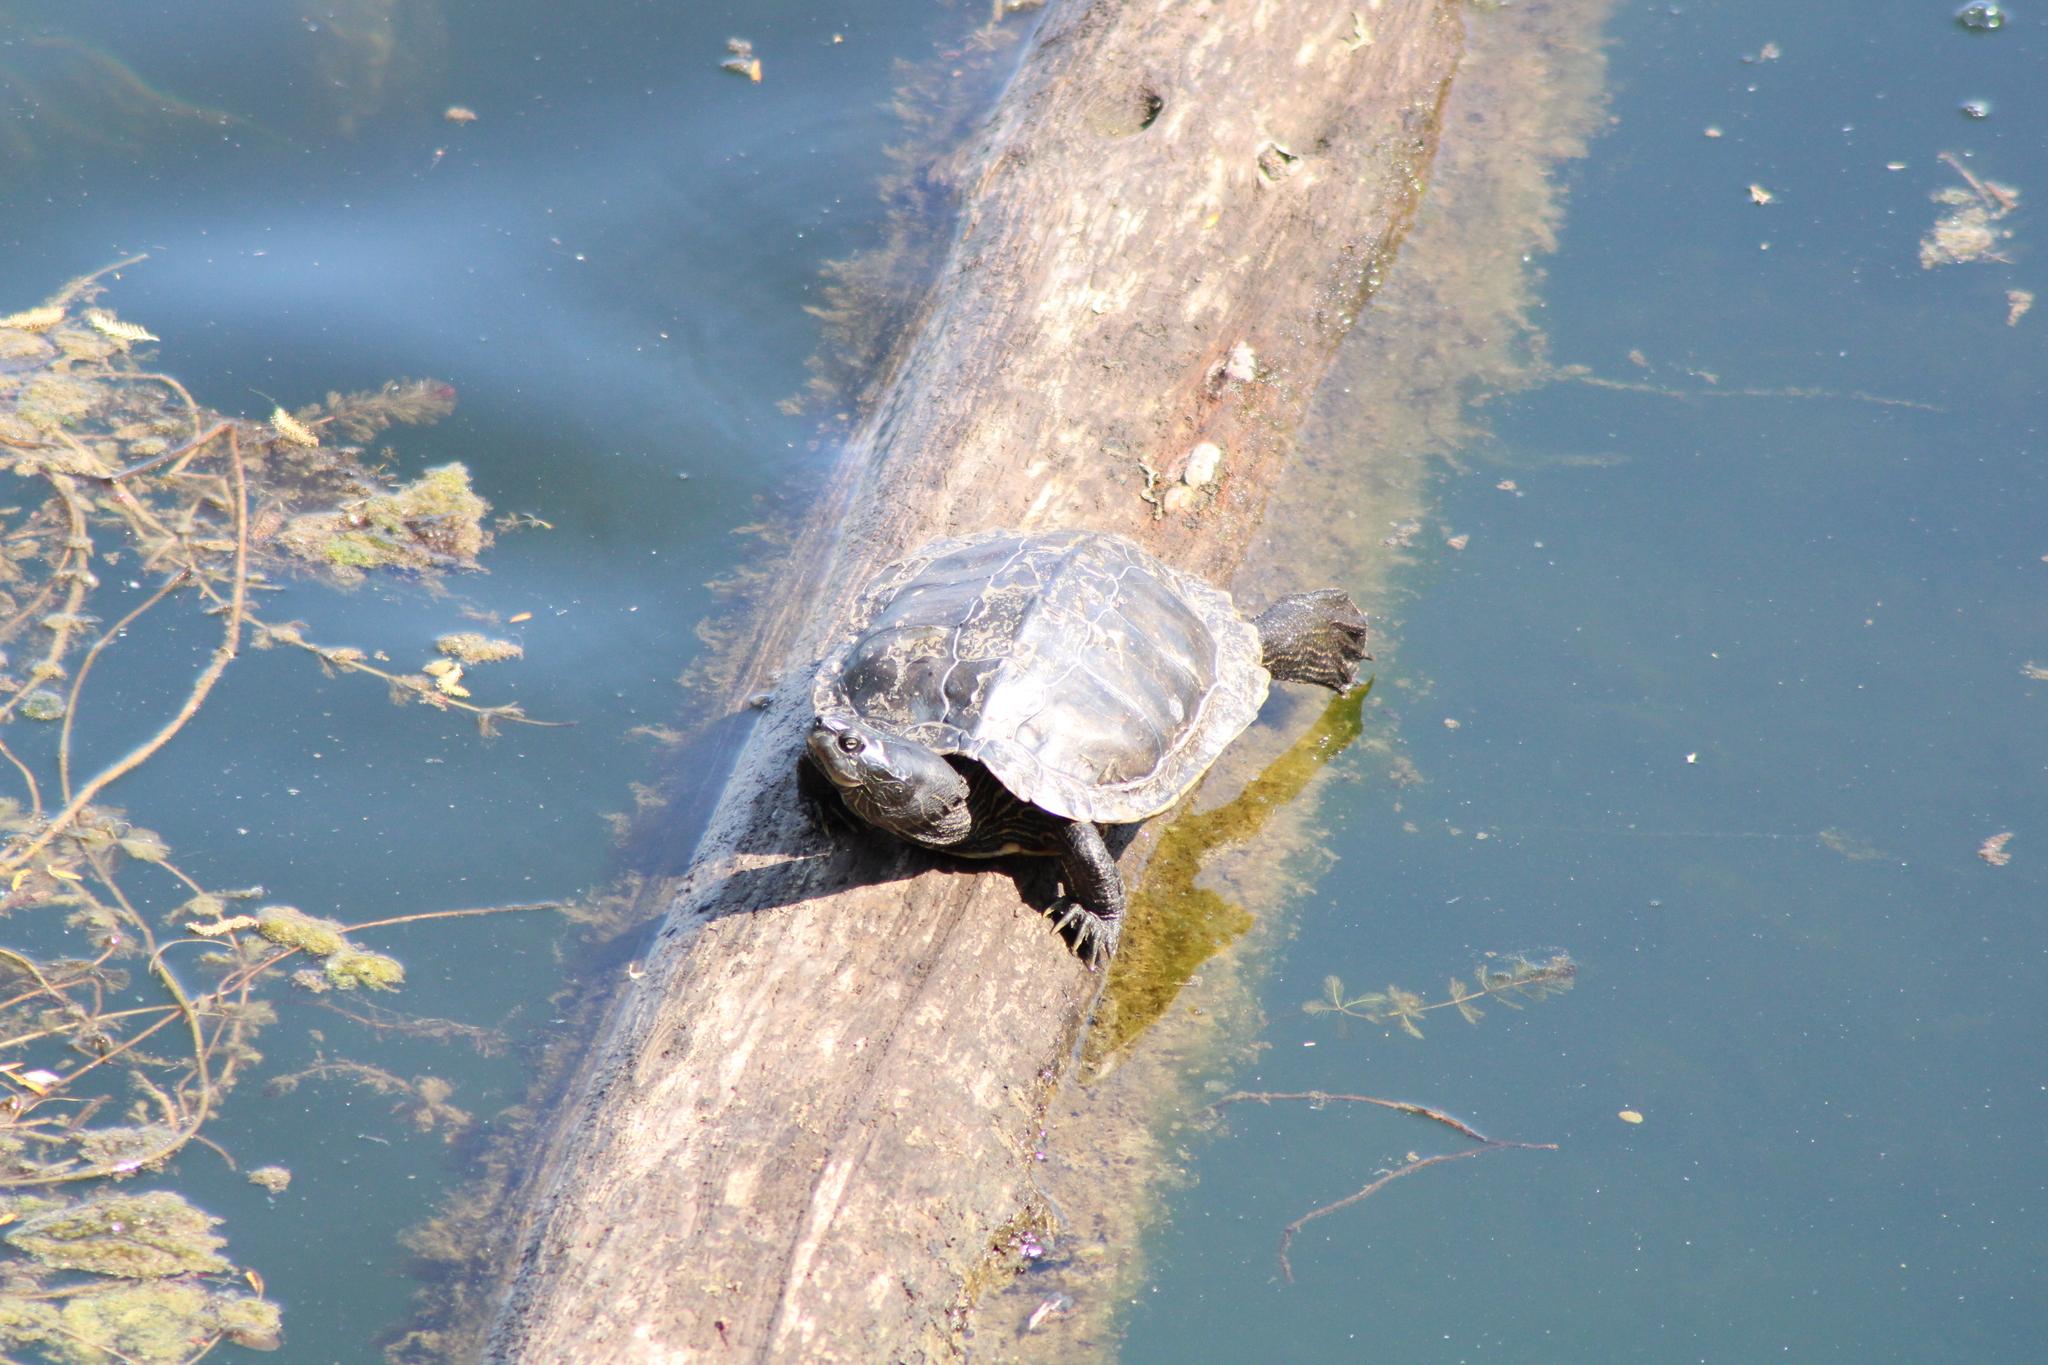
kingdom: Animalia
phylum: Chordata
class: Testudines
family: Emydidae
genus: Graptemys
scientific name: Graptemys pseudogeographica
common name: False map turtle
